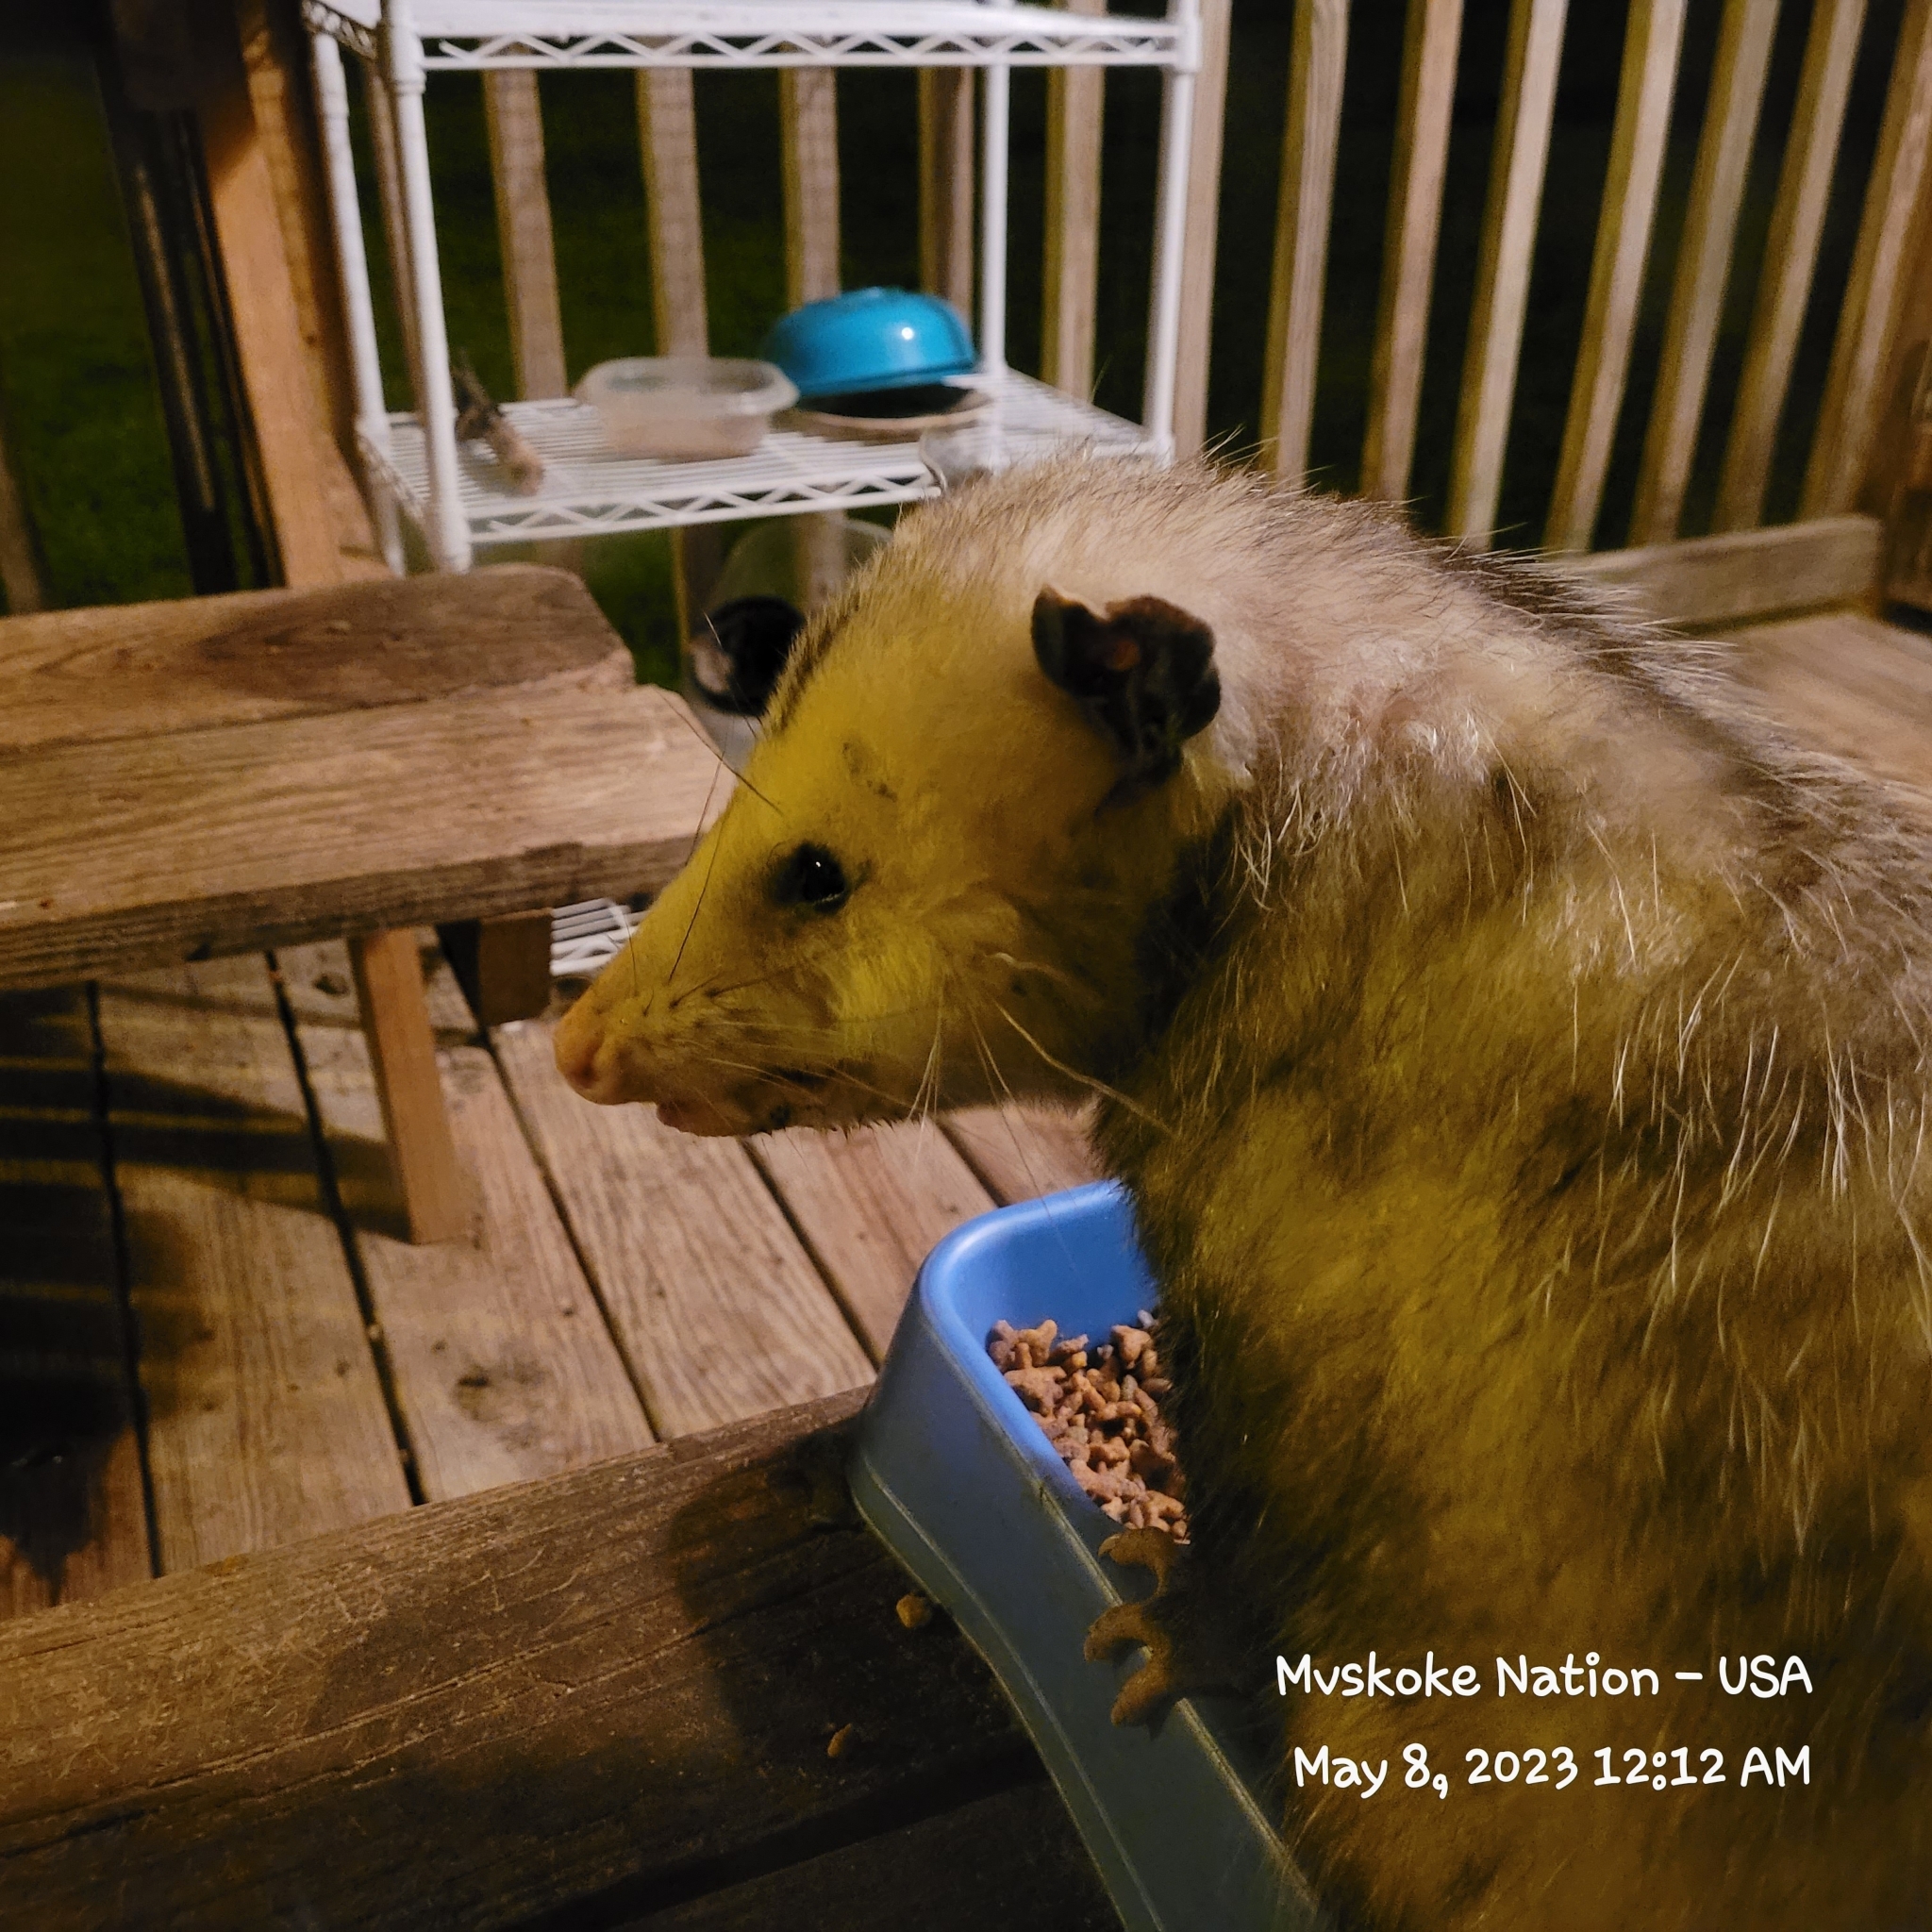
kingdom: Animalia
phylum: Chordata
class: Mammalia
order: Didelphimorphia
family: Didelphidae
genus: Didelphis
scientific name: Didelphis virginiana
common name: Virginia opossum
